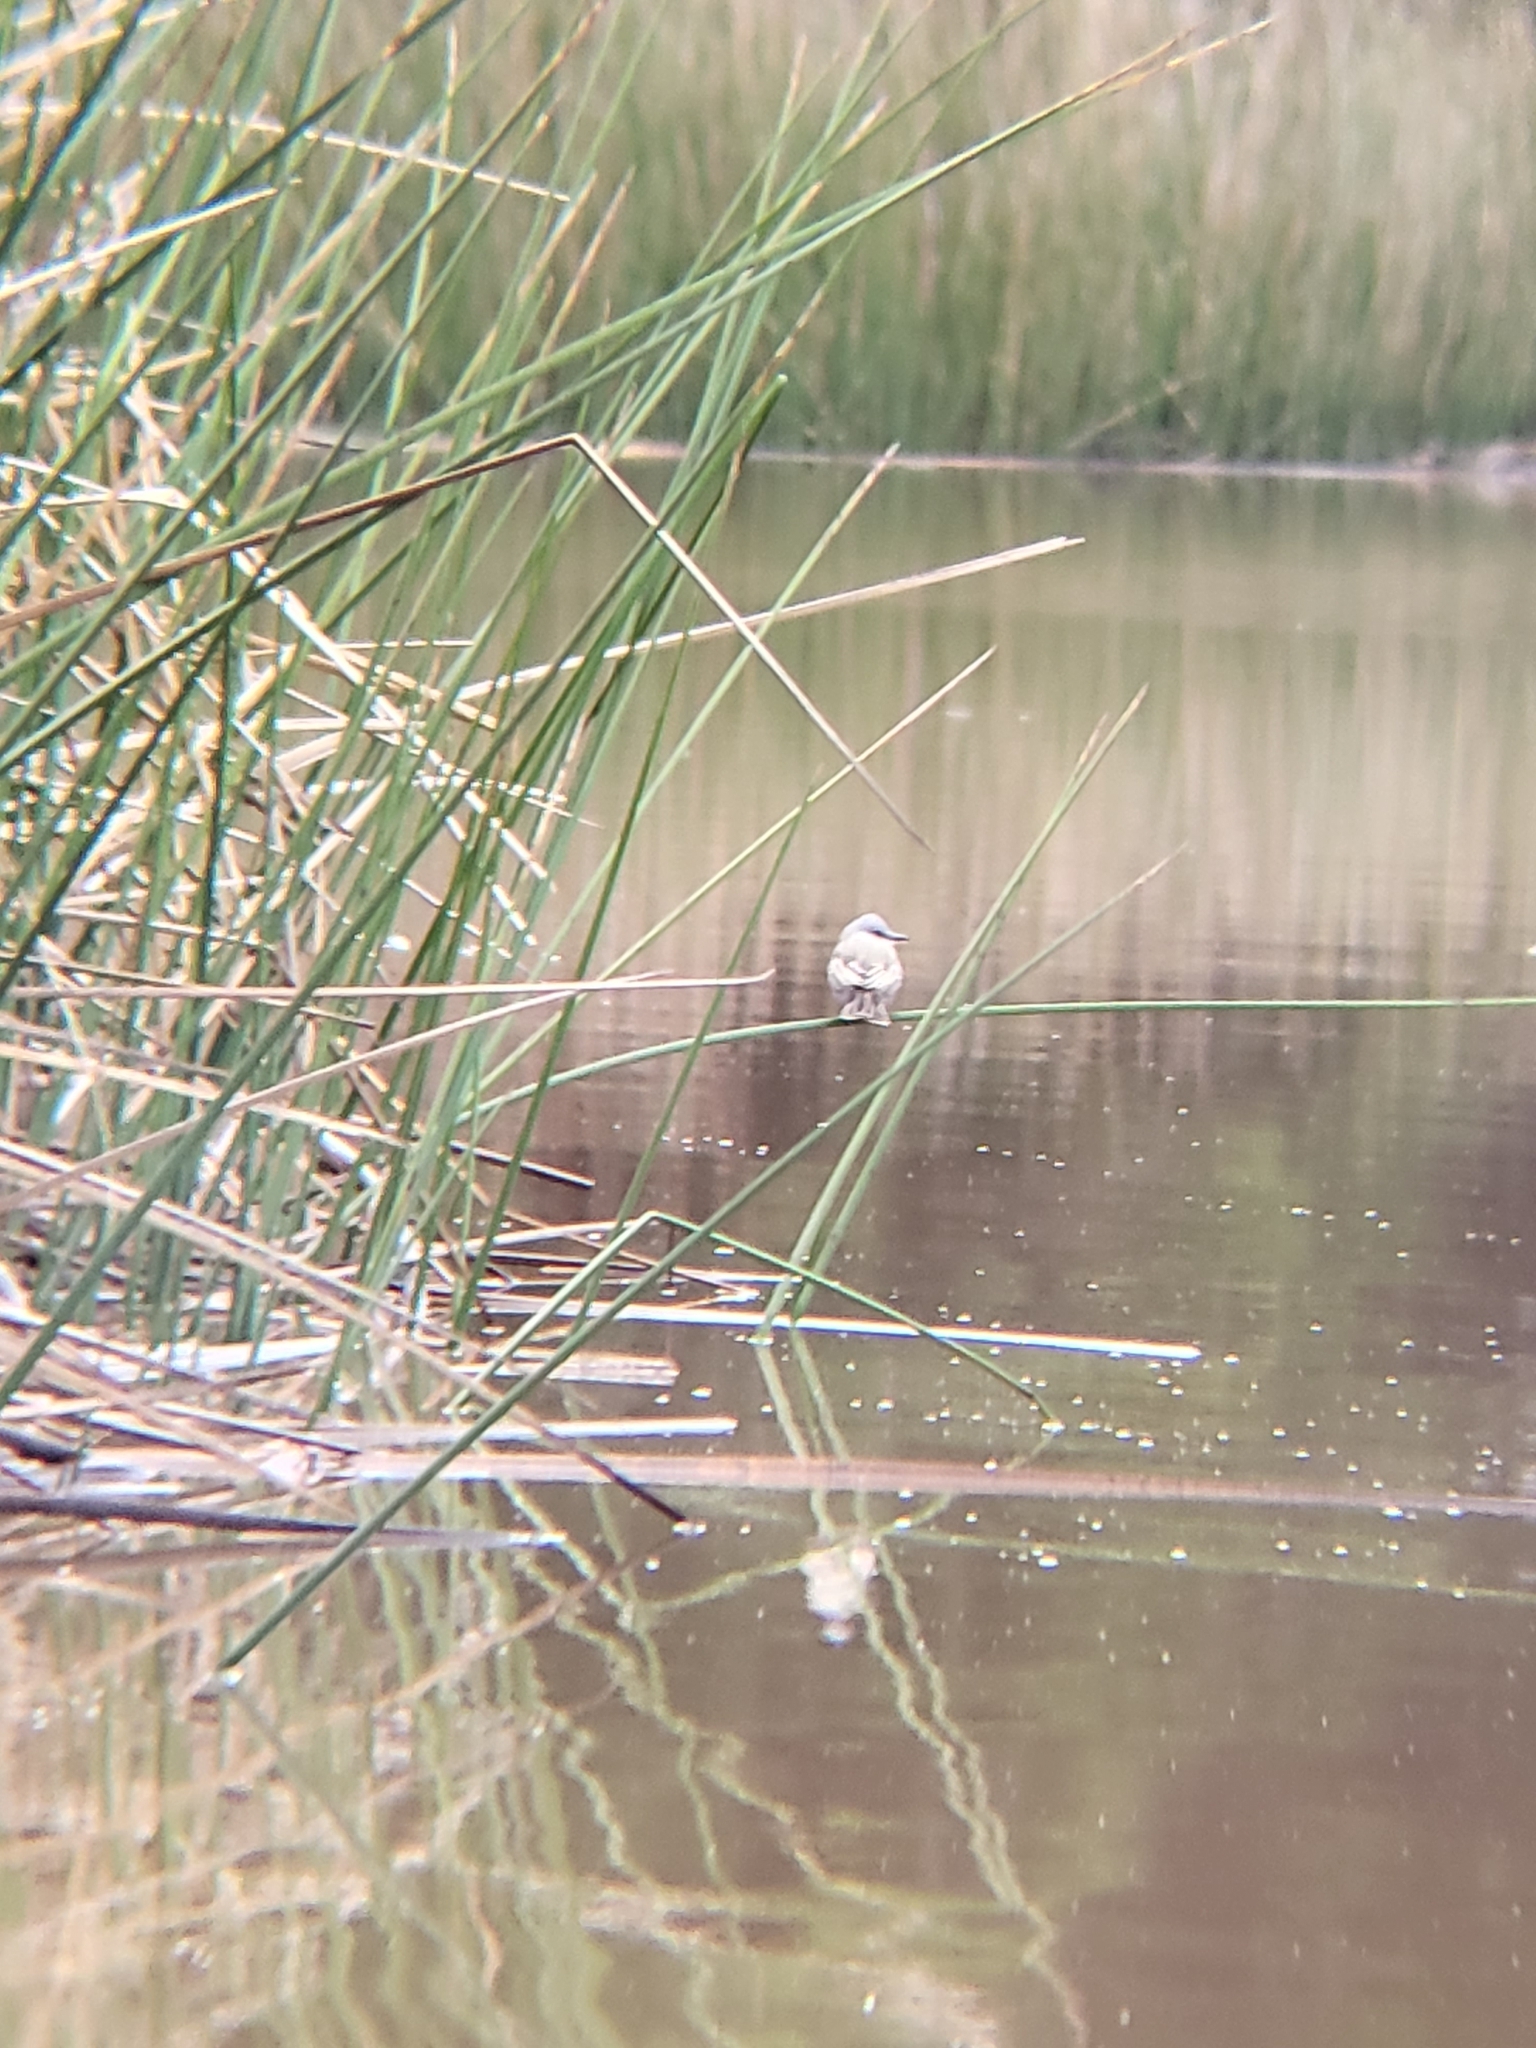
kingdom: Animalia
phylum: Chordata
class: Aves
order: Passeriformes
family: Tyrannidae
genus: Tyrannus
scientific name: Tyrannus melancholicus
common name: Tropical kingbird
